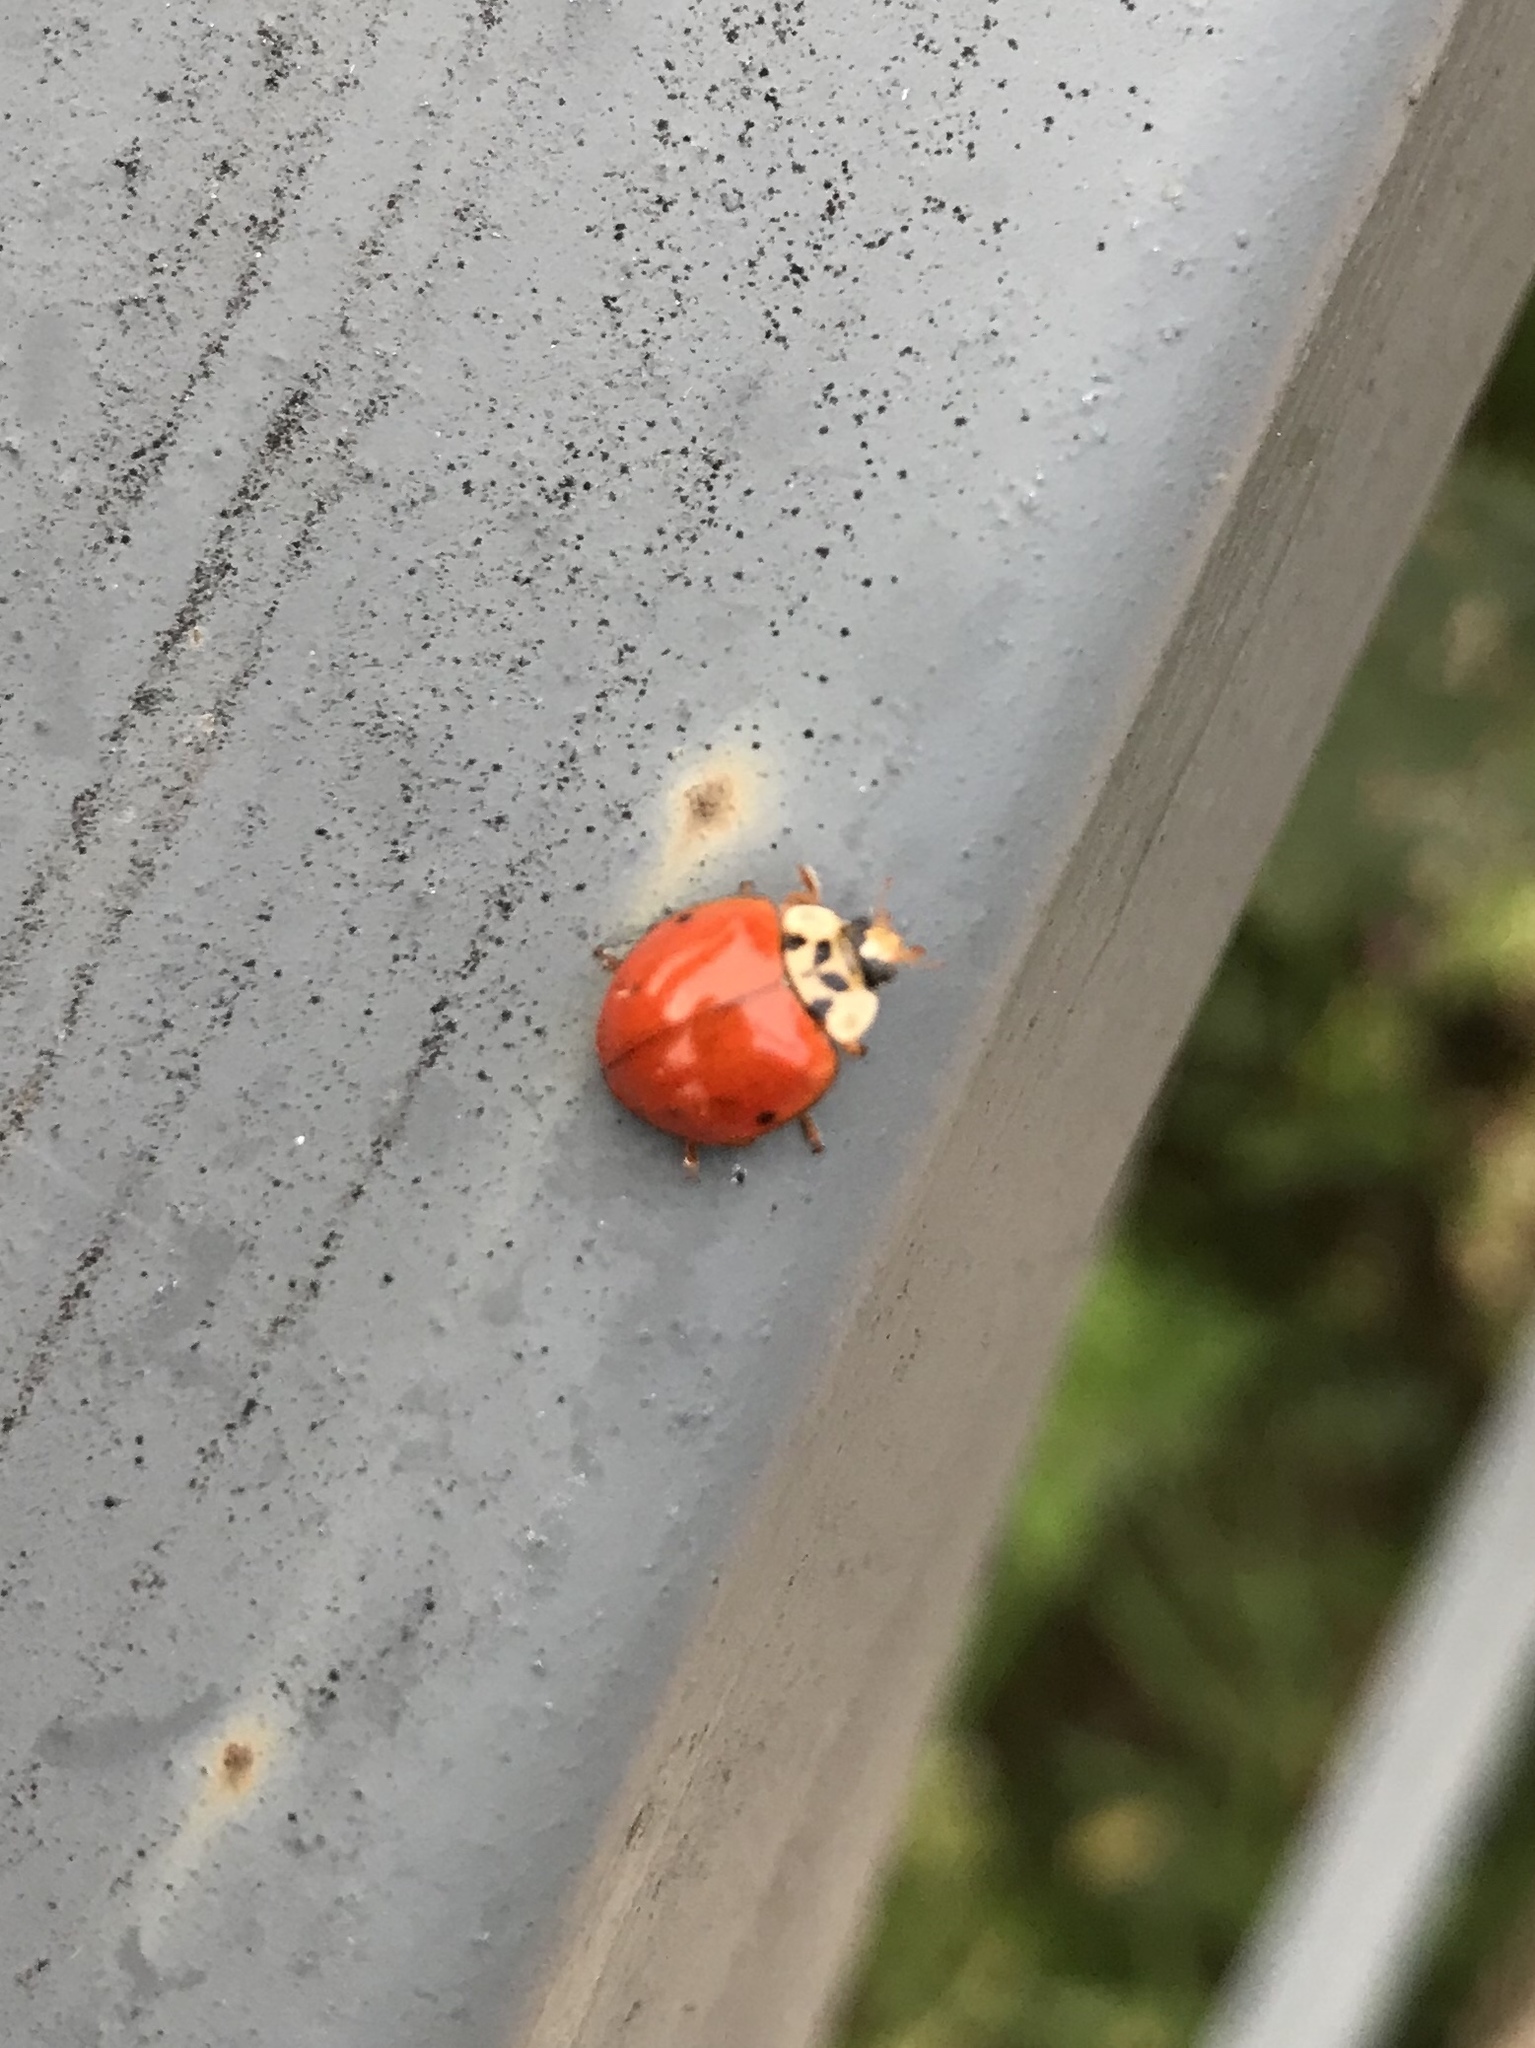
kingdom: Animalia
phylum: Arthropoda
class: Insecta
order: Coleoptera
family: Coccinellidae
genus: Harmonia
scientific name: Harmonia axyridis
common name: Harlequin ladybird
